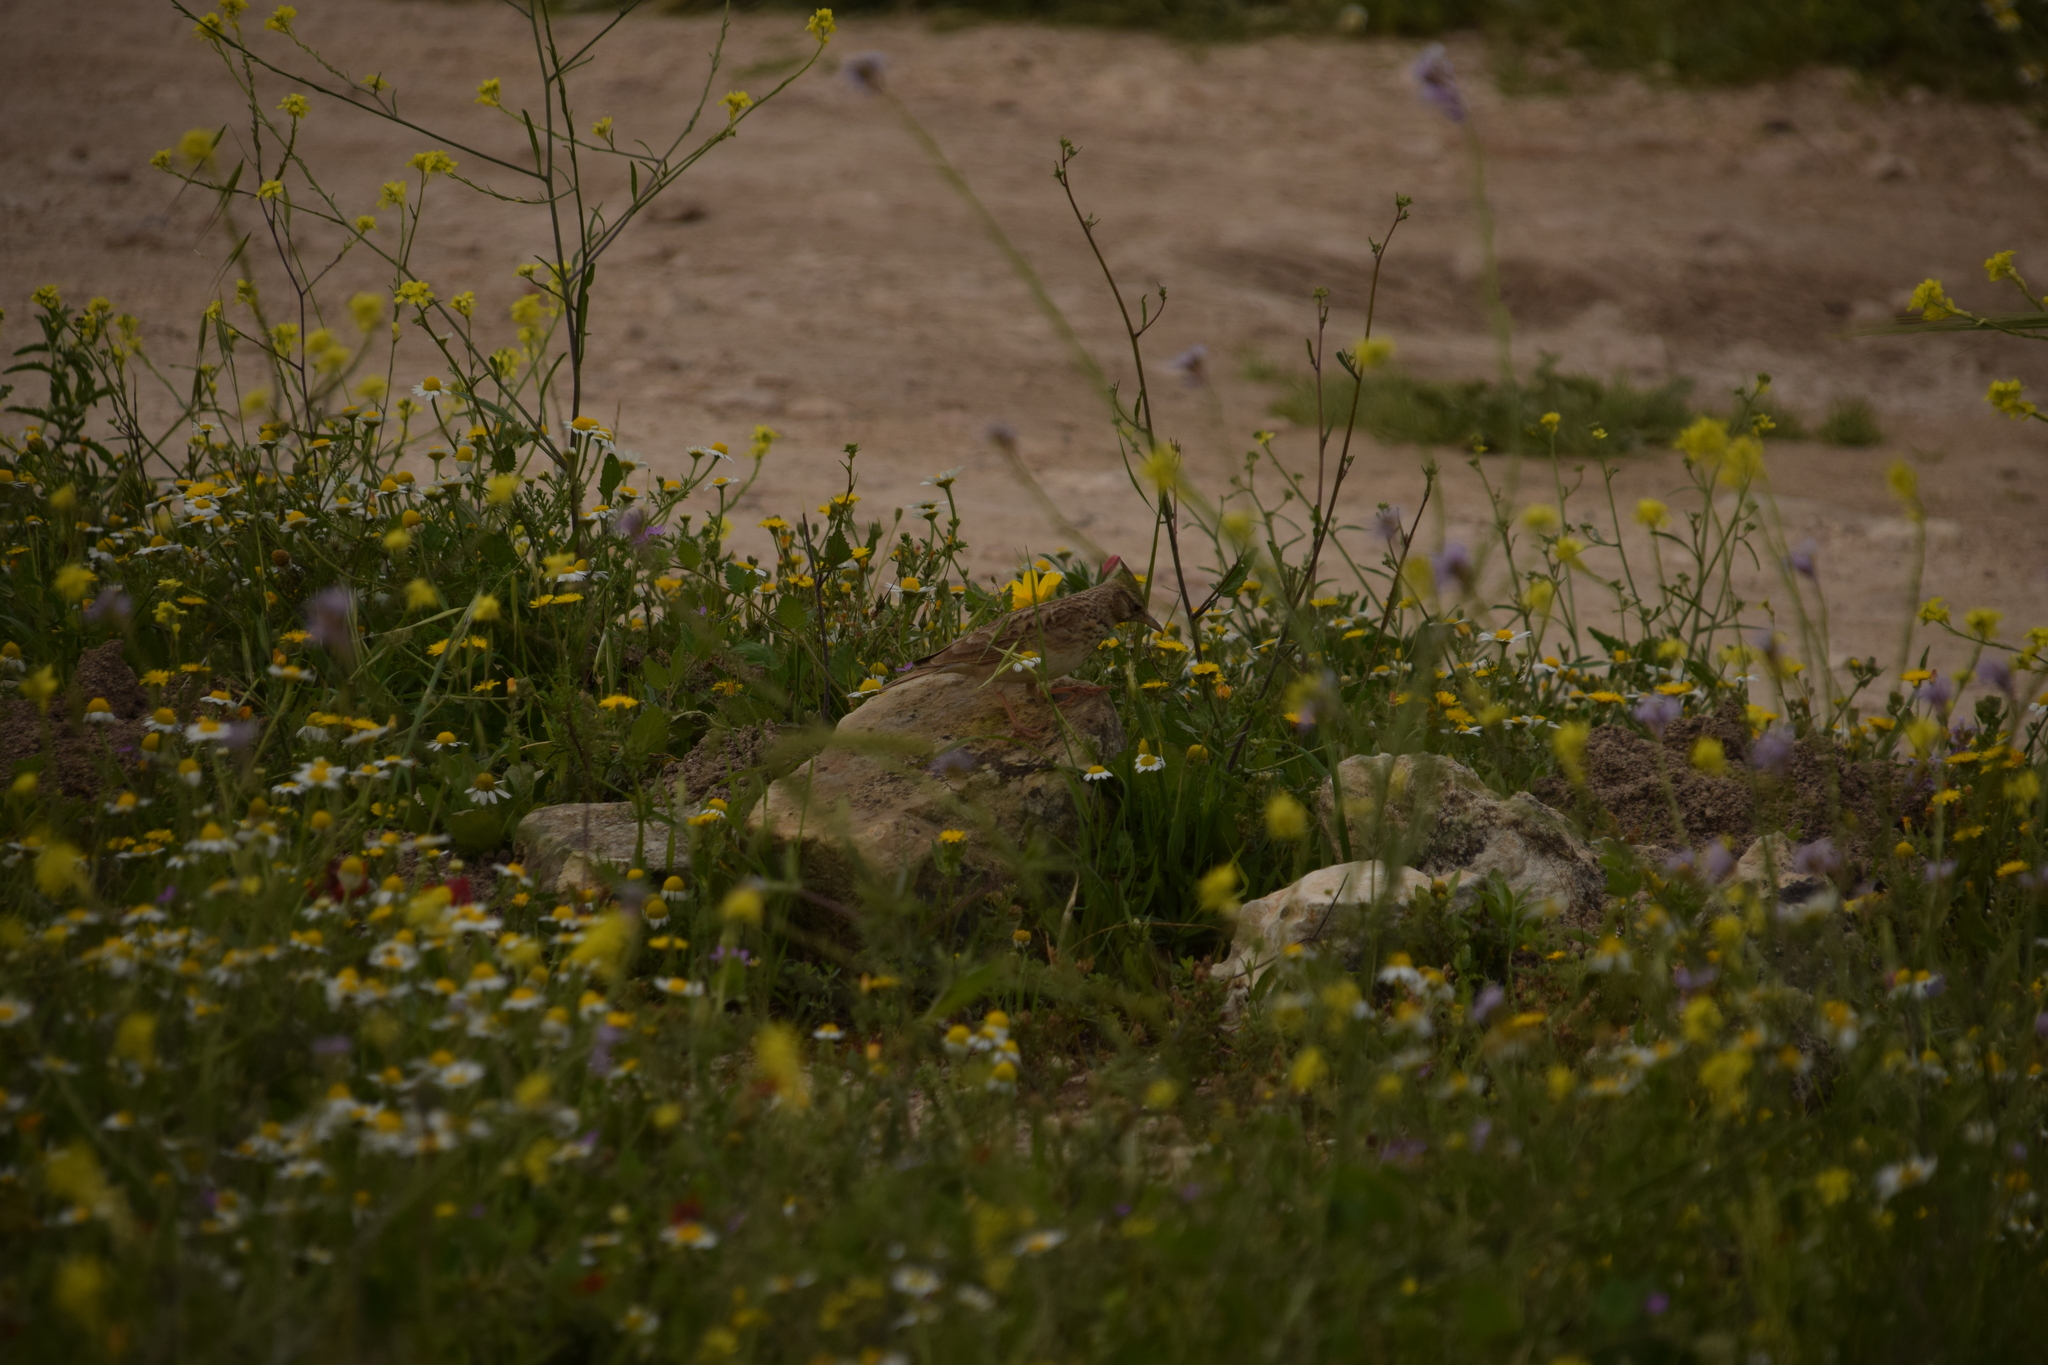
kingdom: Animalia
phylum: Chordata
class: Aves
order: Passeriformes
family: Alaudidae
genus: Galerida
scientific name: Galerida cristata
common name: Crested lark
